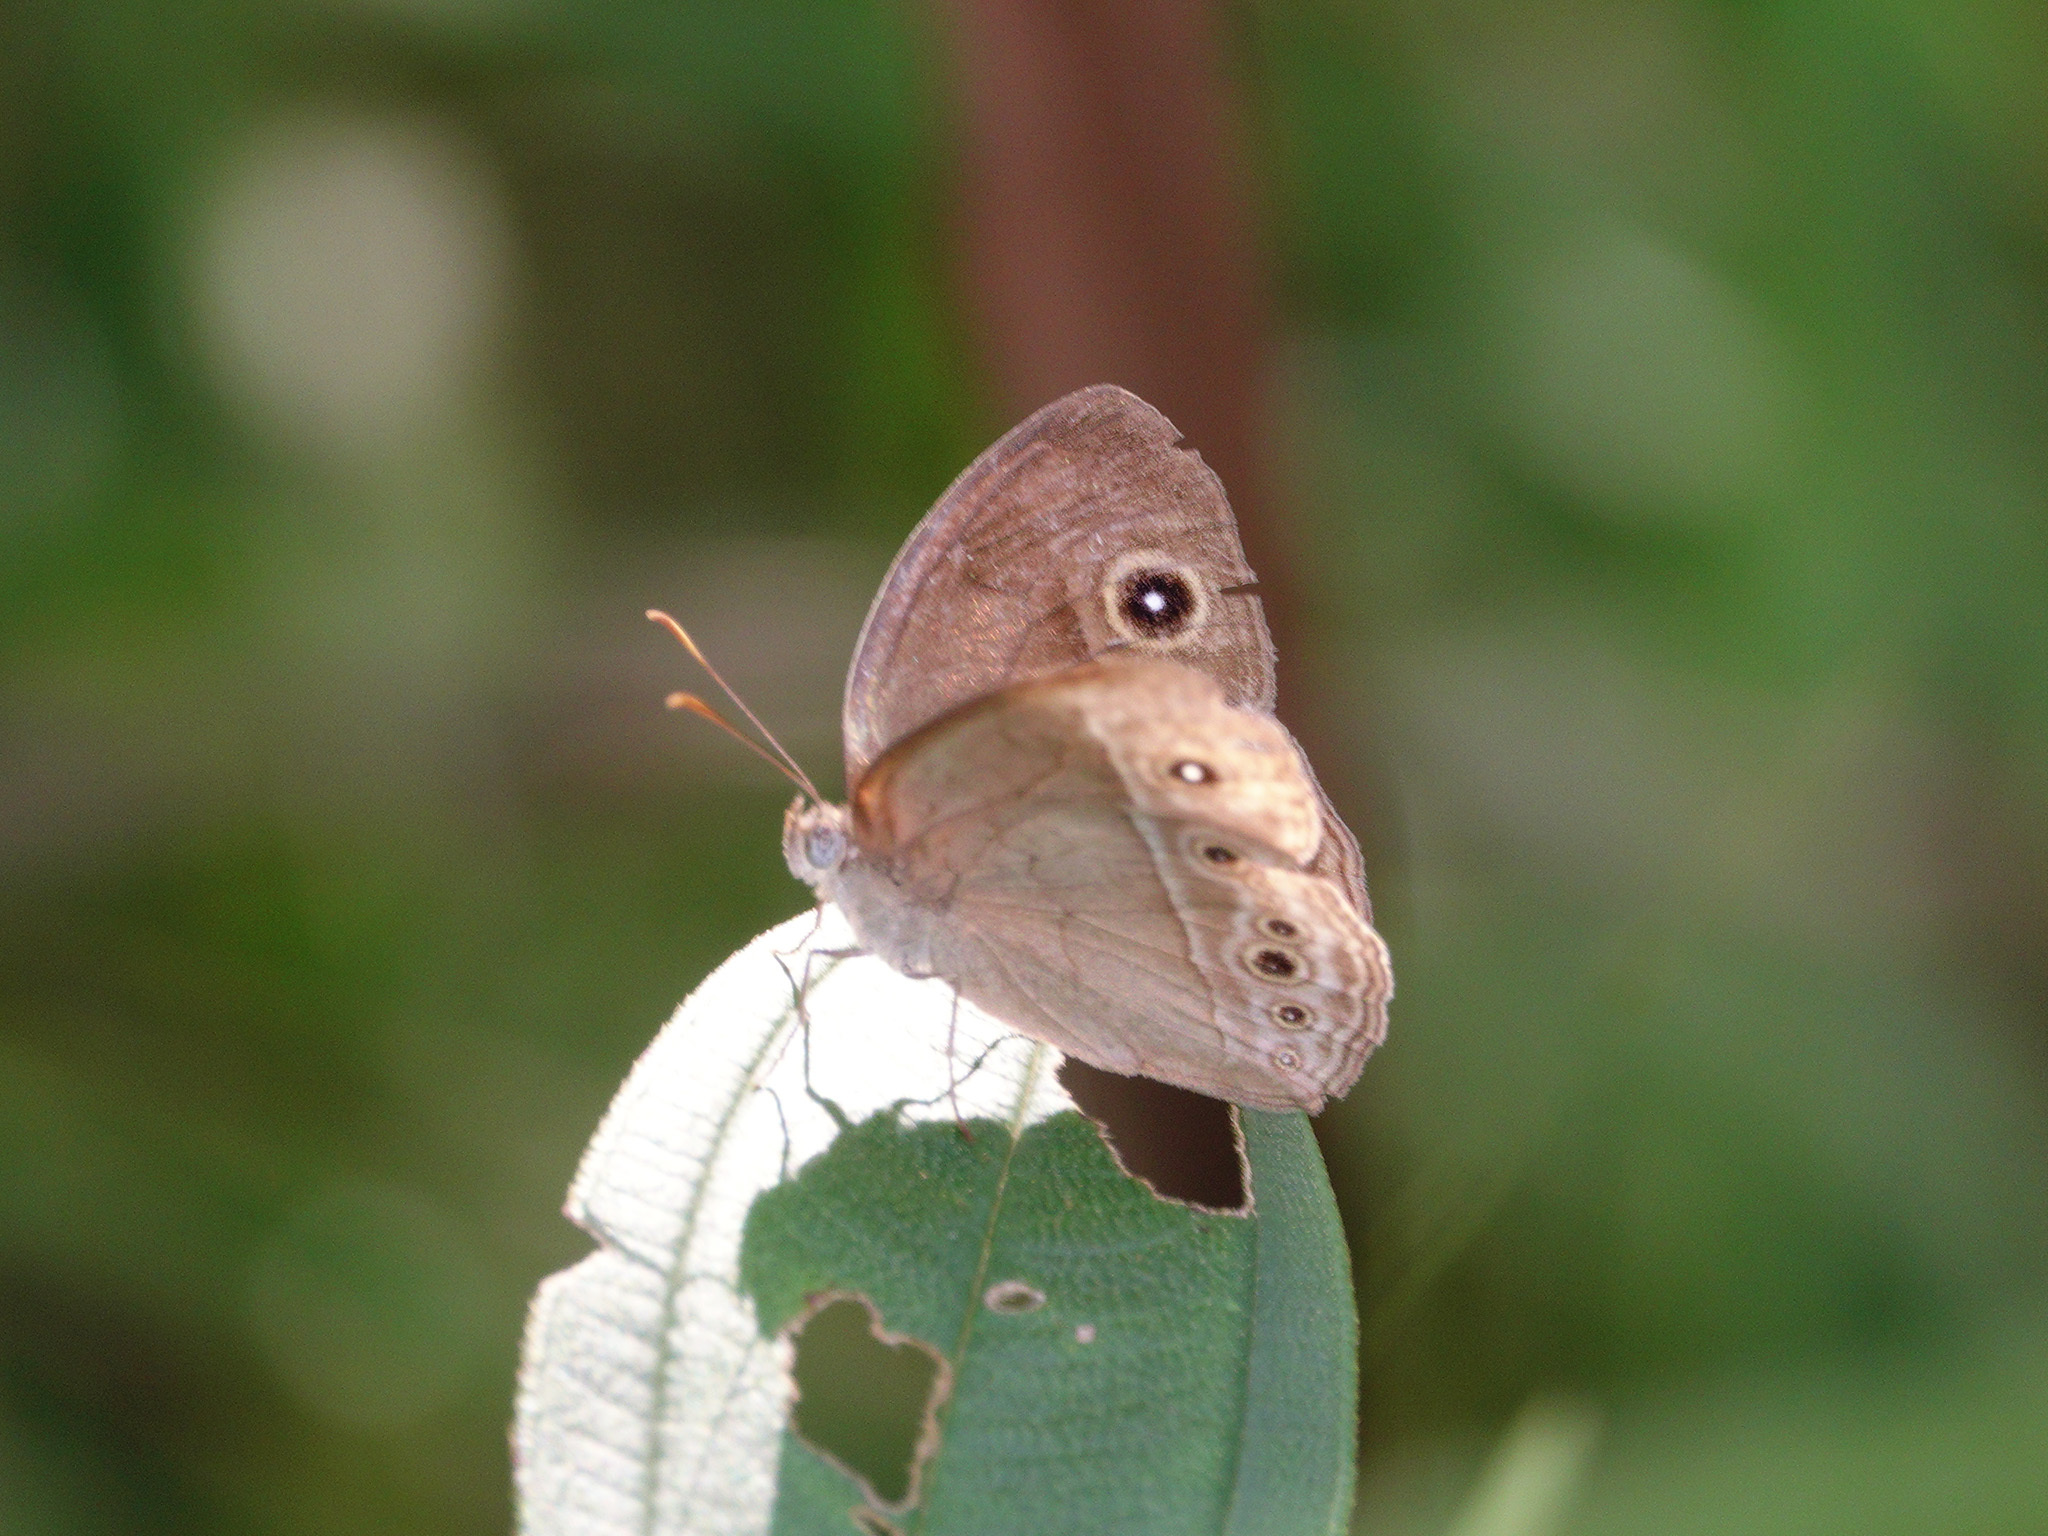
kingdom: Animalia
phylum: Arthropoda
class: Insecta
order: Lepidoptera
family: Nymphalidae
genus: Mycalesis
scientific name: Mycalesis perseoides
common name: Burmese bushbrown
